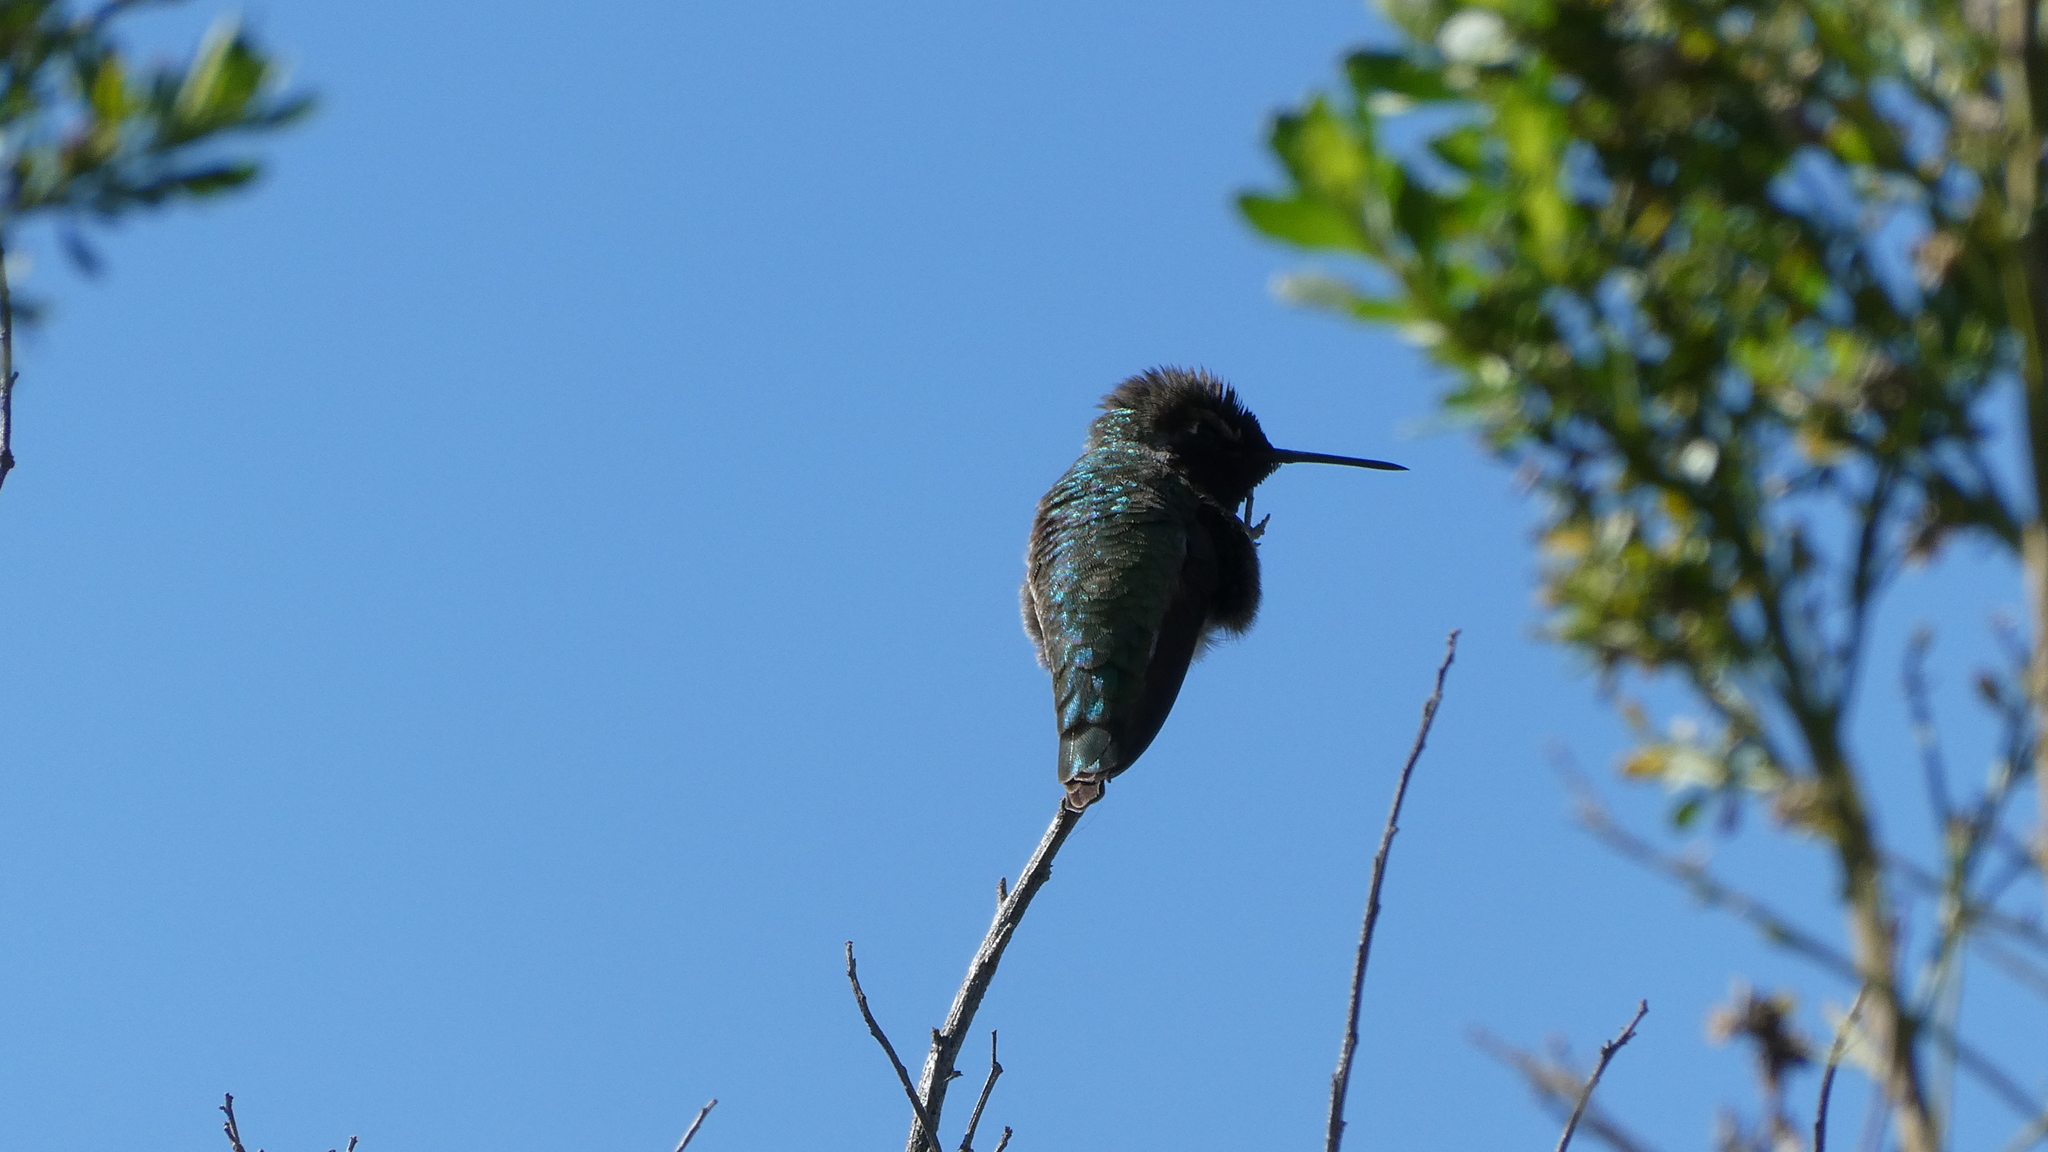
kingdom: Animalia
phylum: Chordata
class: Aves
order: Apodiformes
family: Trochilidae
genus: Calypte
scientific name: Calypte anna
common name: Anna's hummingbird
